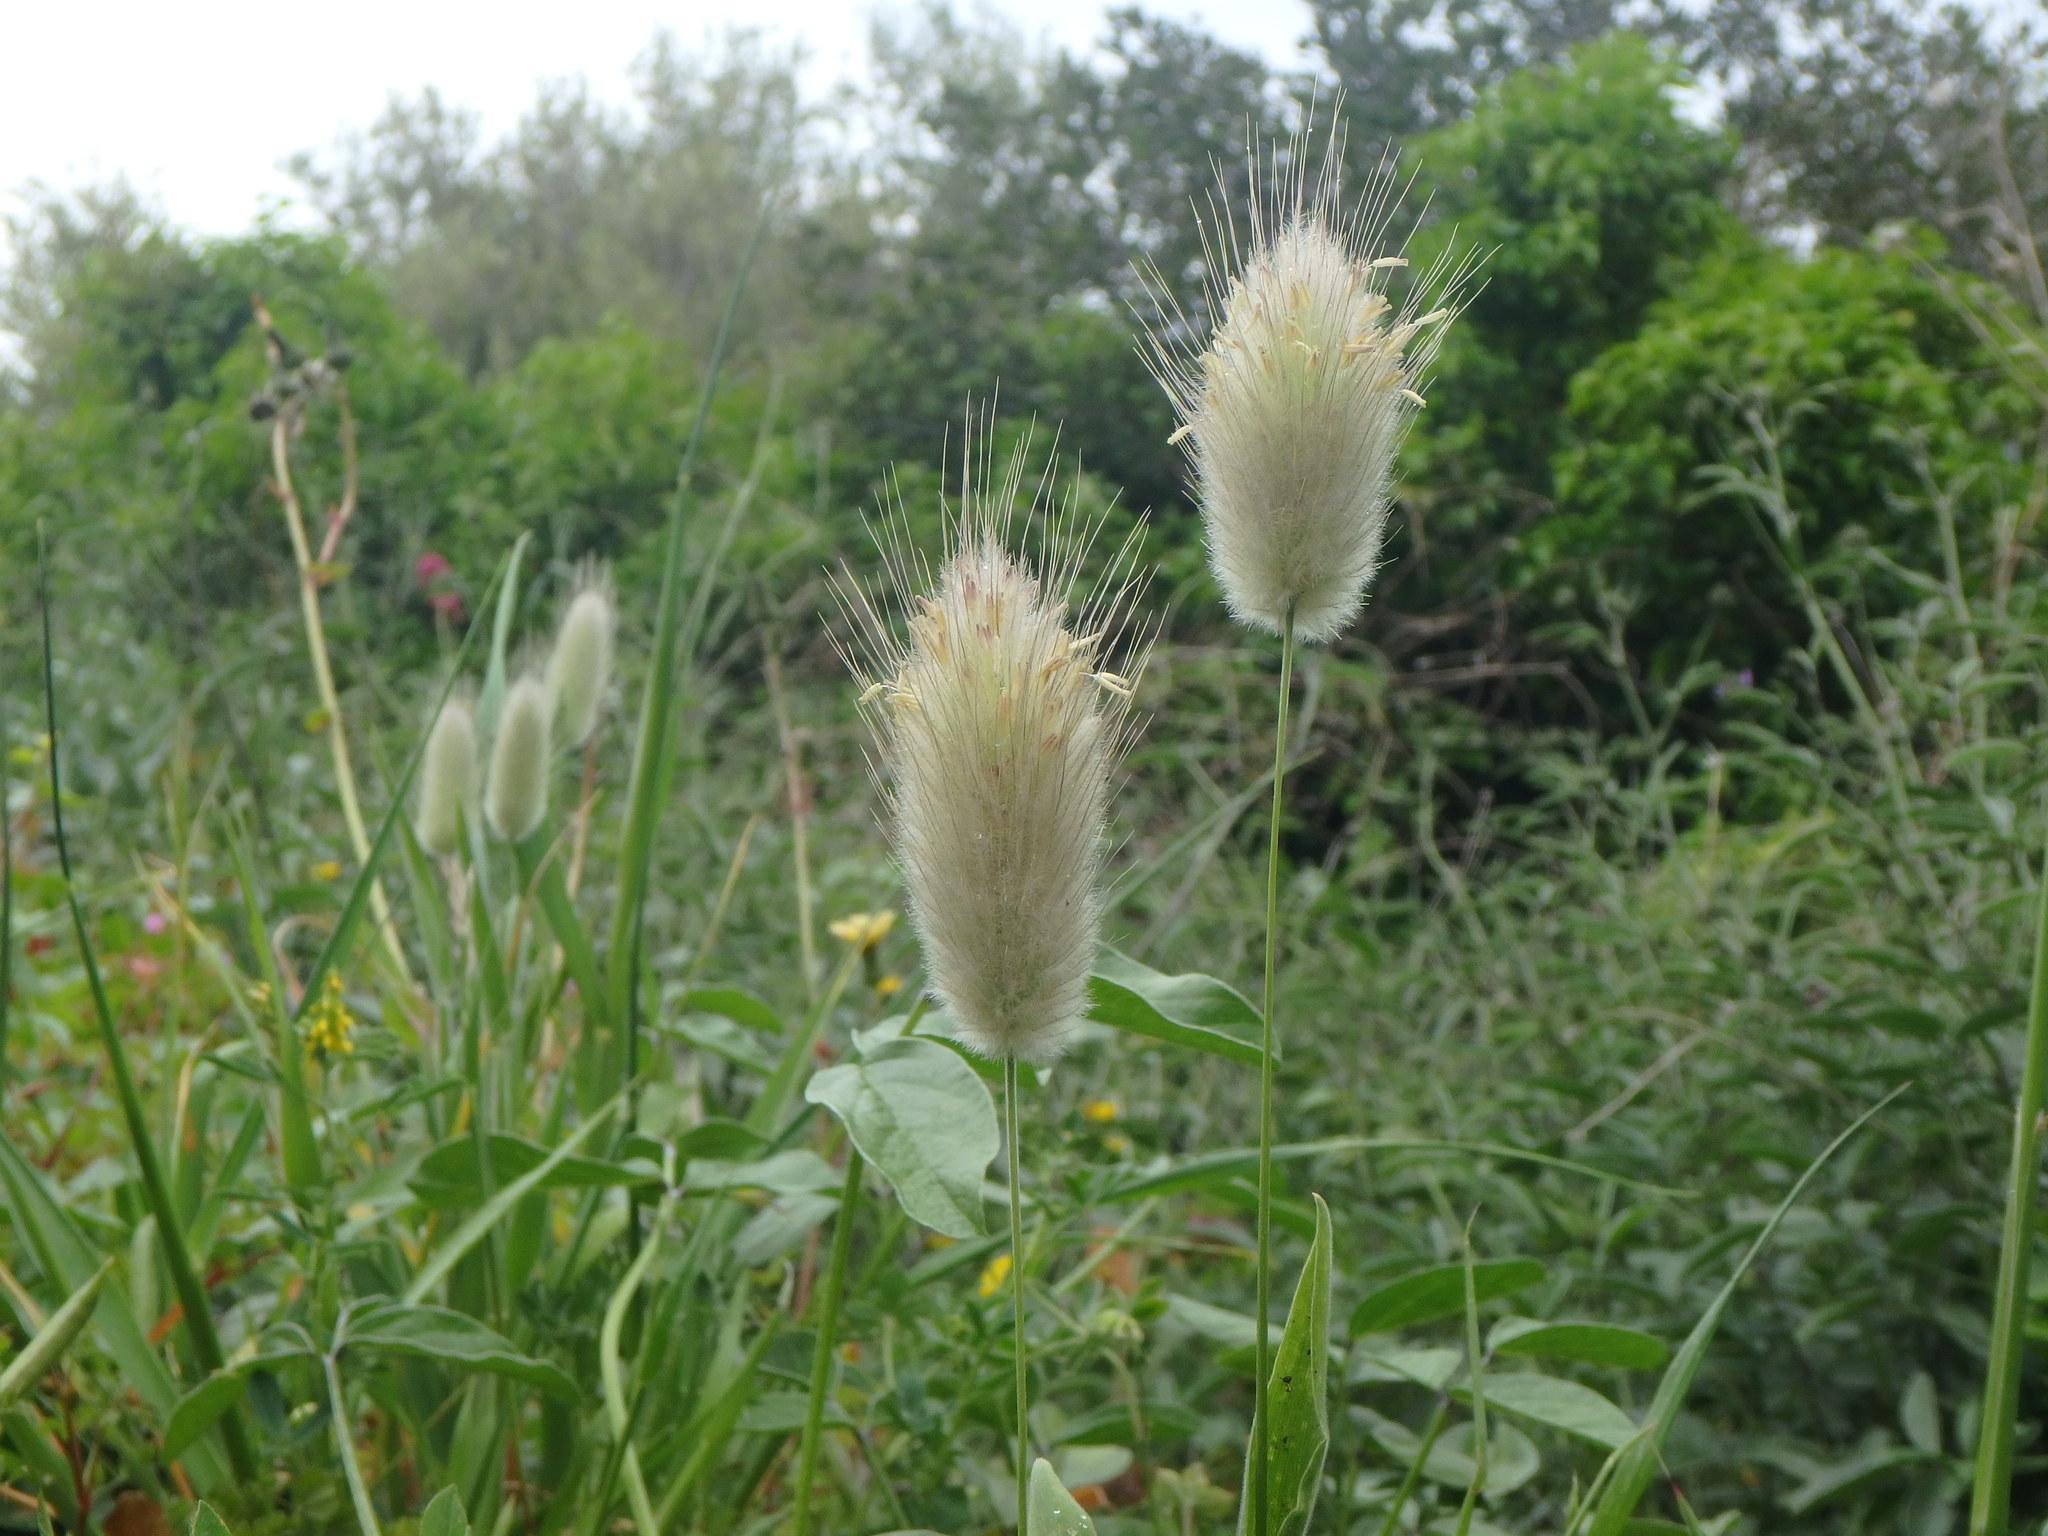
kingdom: Plantae
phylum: Tracheophyta
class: Liliopsida
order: Poales
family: Poaceae
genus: Lagurus
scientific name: Lagurus ovatus
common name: Hare's-tail
